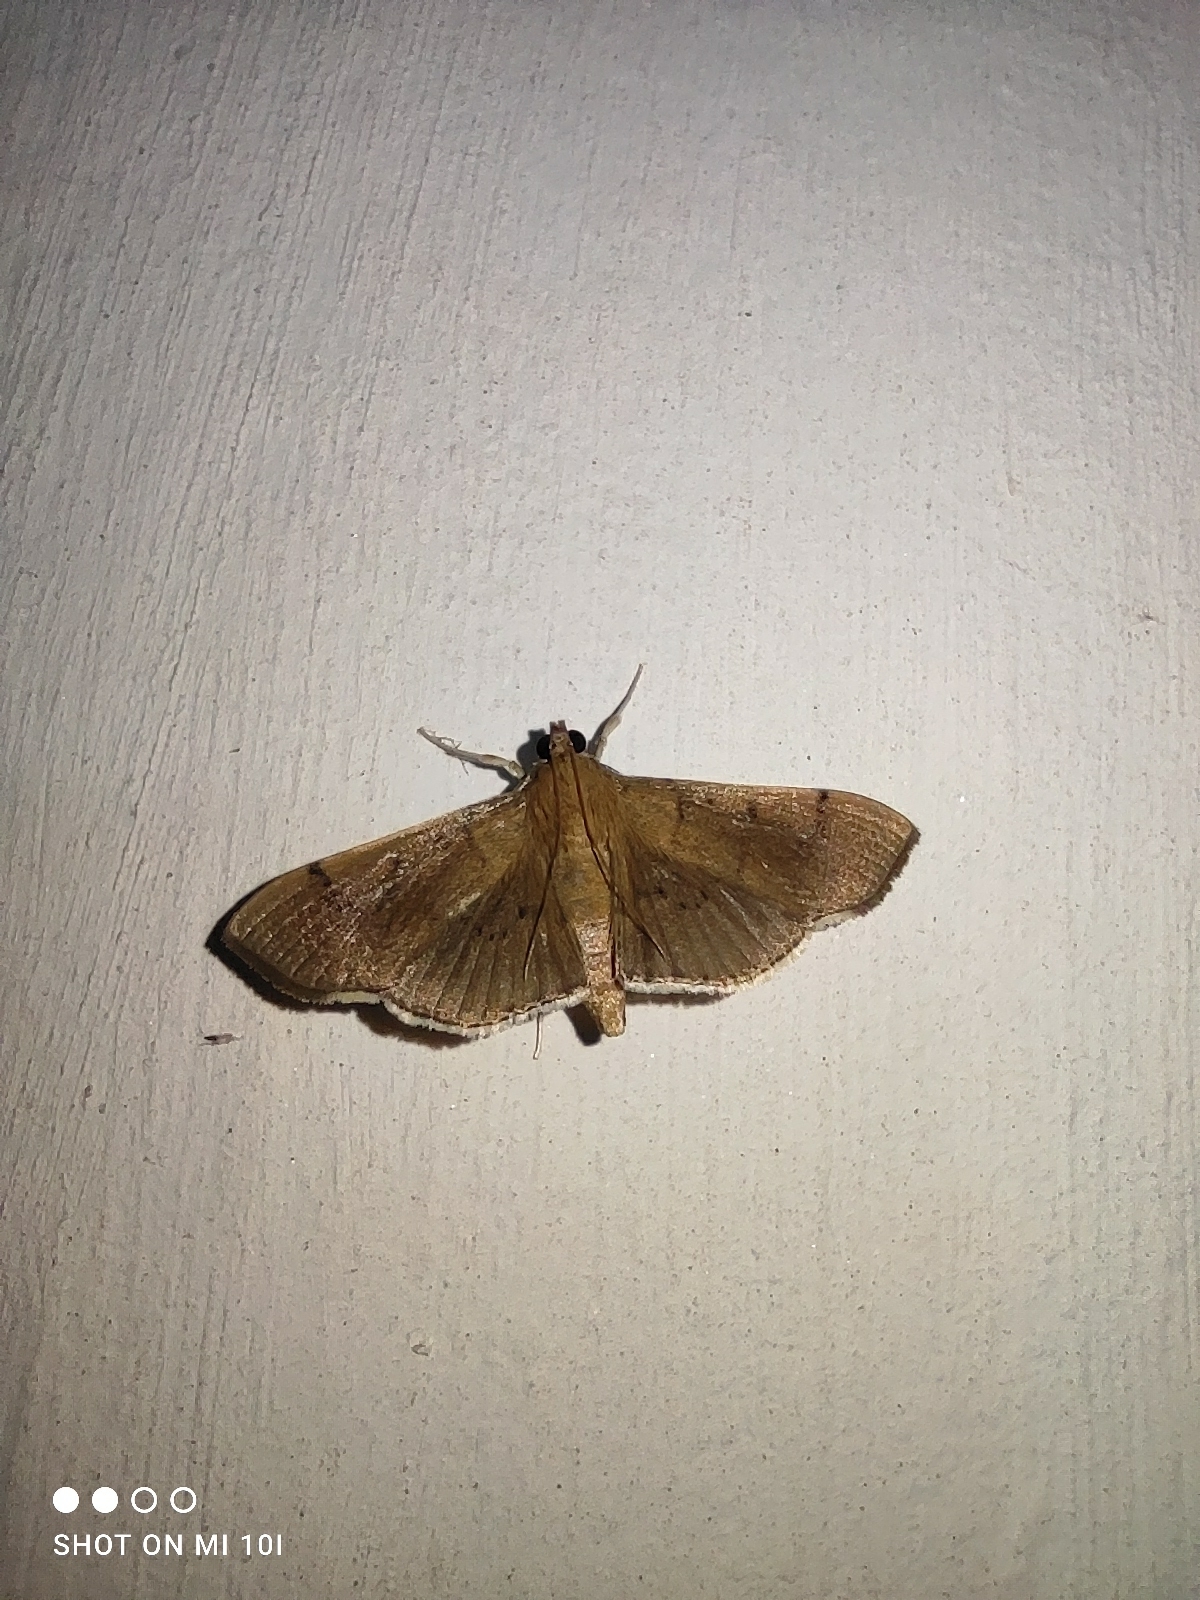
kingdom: Animalia
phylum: Arthropoda
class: Insecta
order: Lepidoptera
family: Crambidae
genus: Omiodes
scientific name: Omiodes
